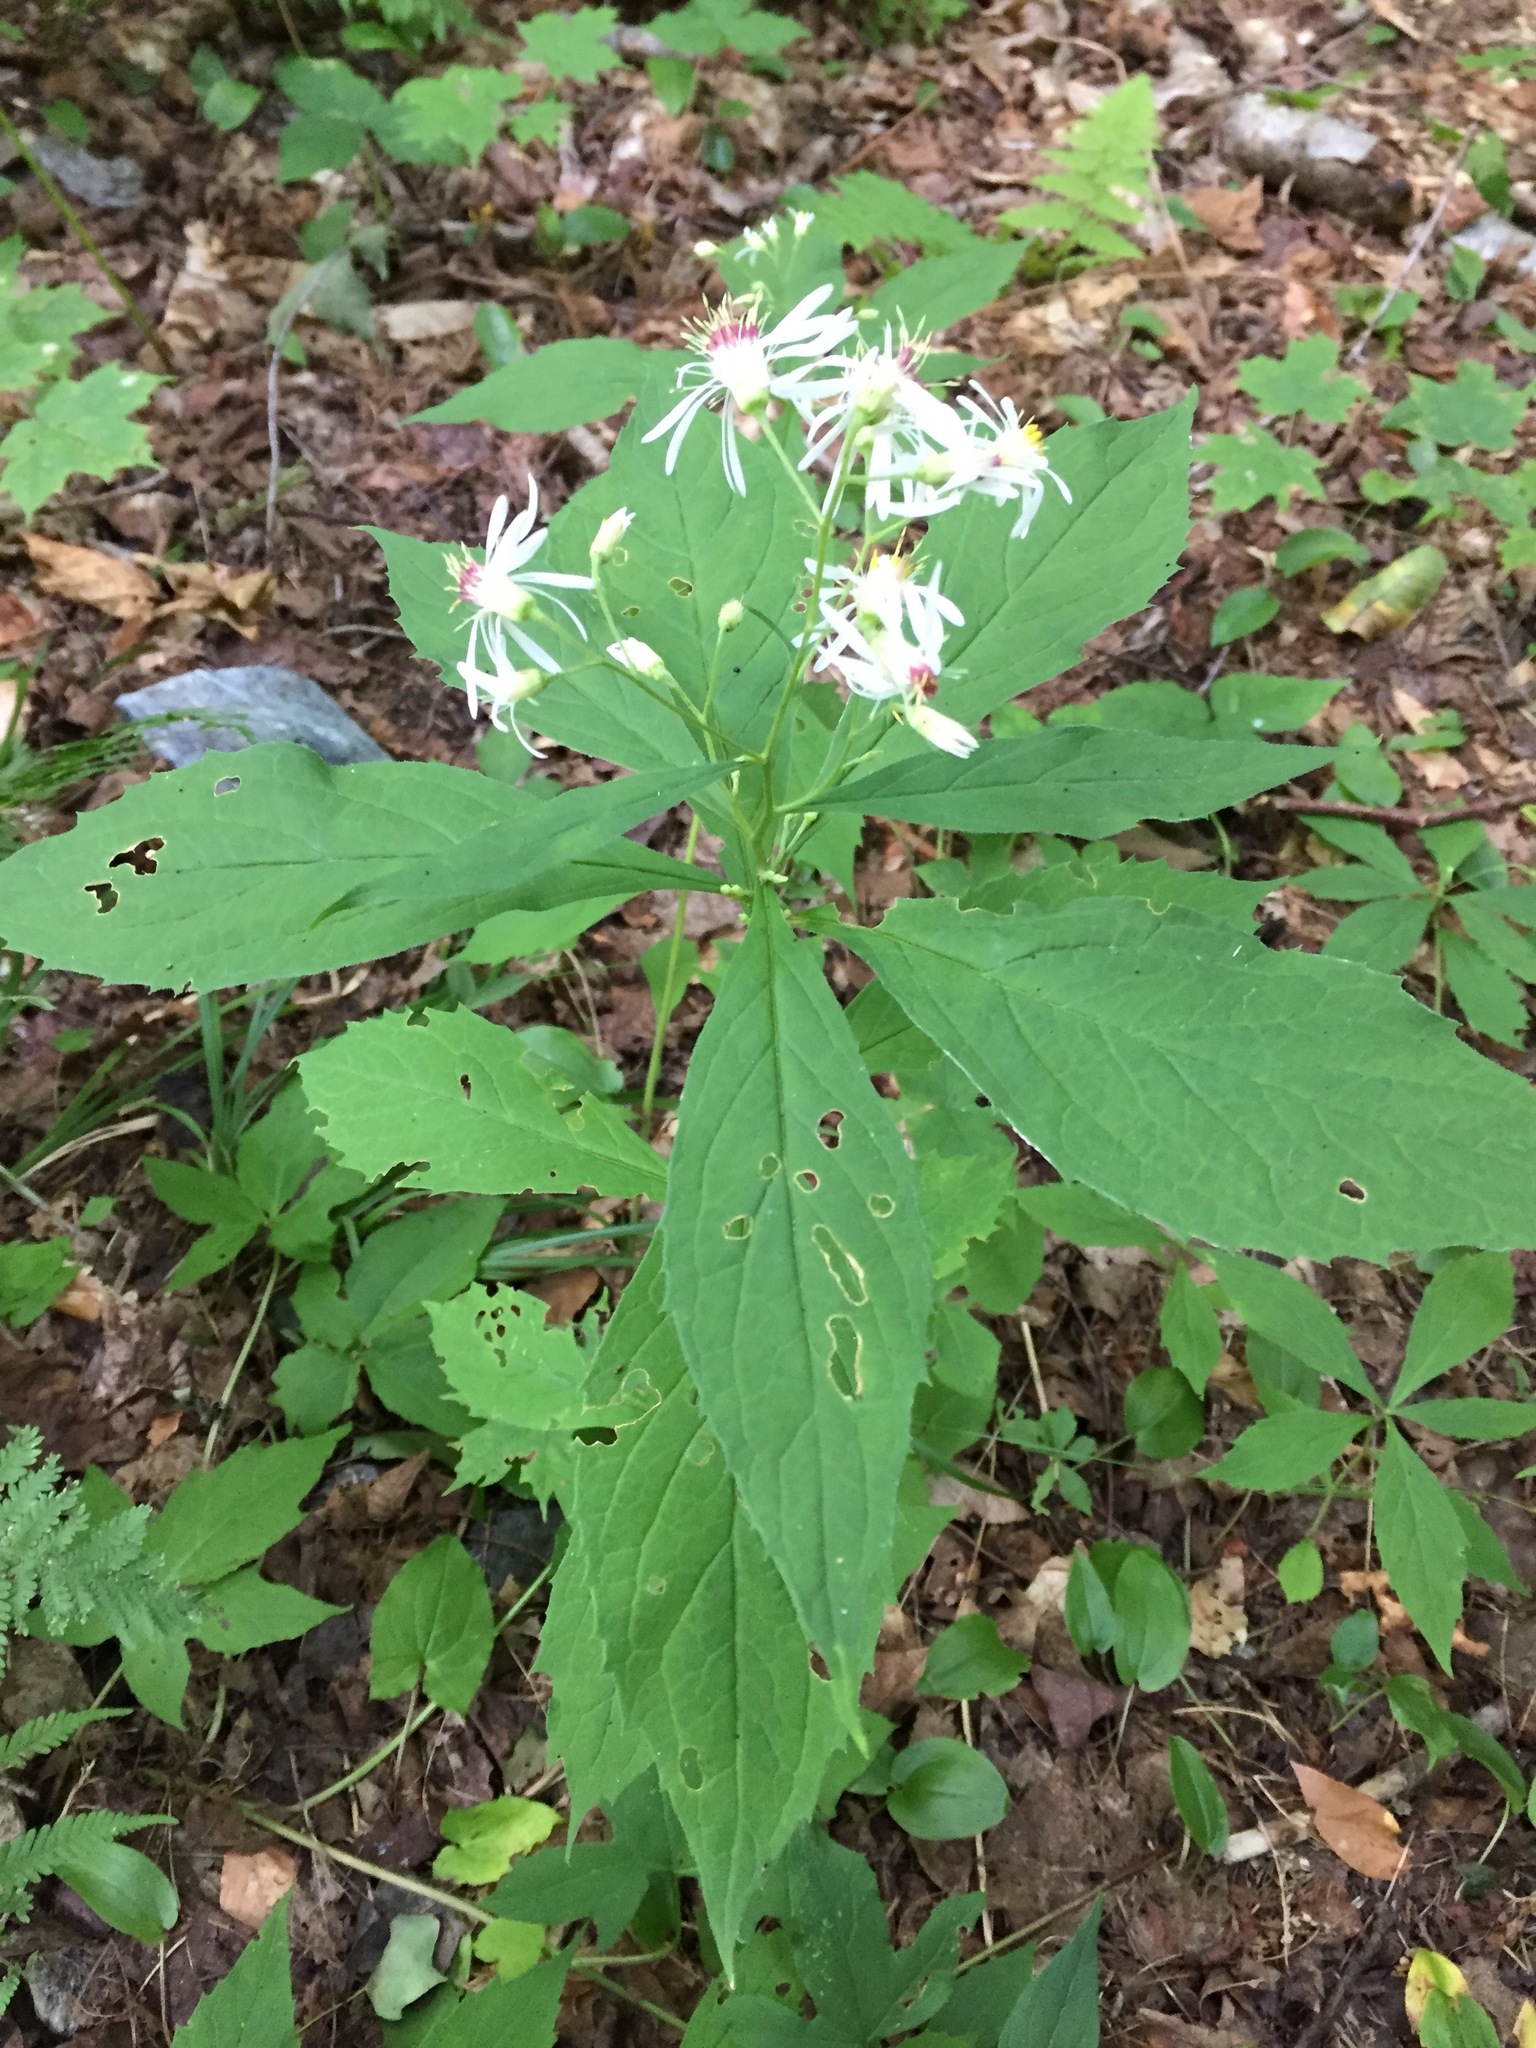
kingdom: Plantae
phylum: Tracheophyta
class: Magnoliopsida
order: Asterales
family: Asteraceae
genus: Oclemena
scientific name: Oclemena acuminata
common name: Mountain aster
